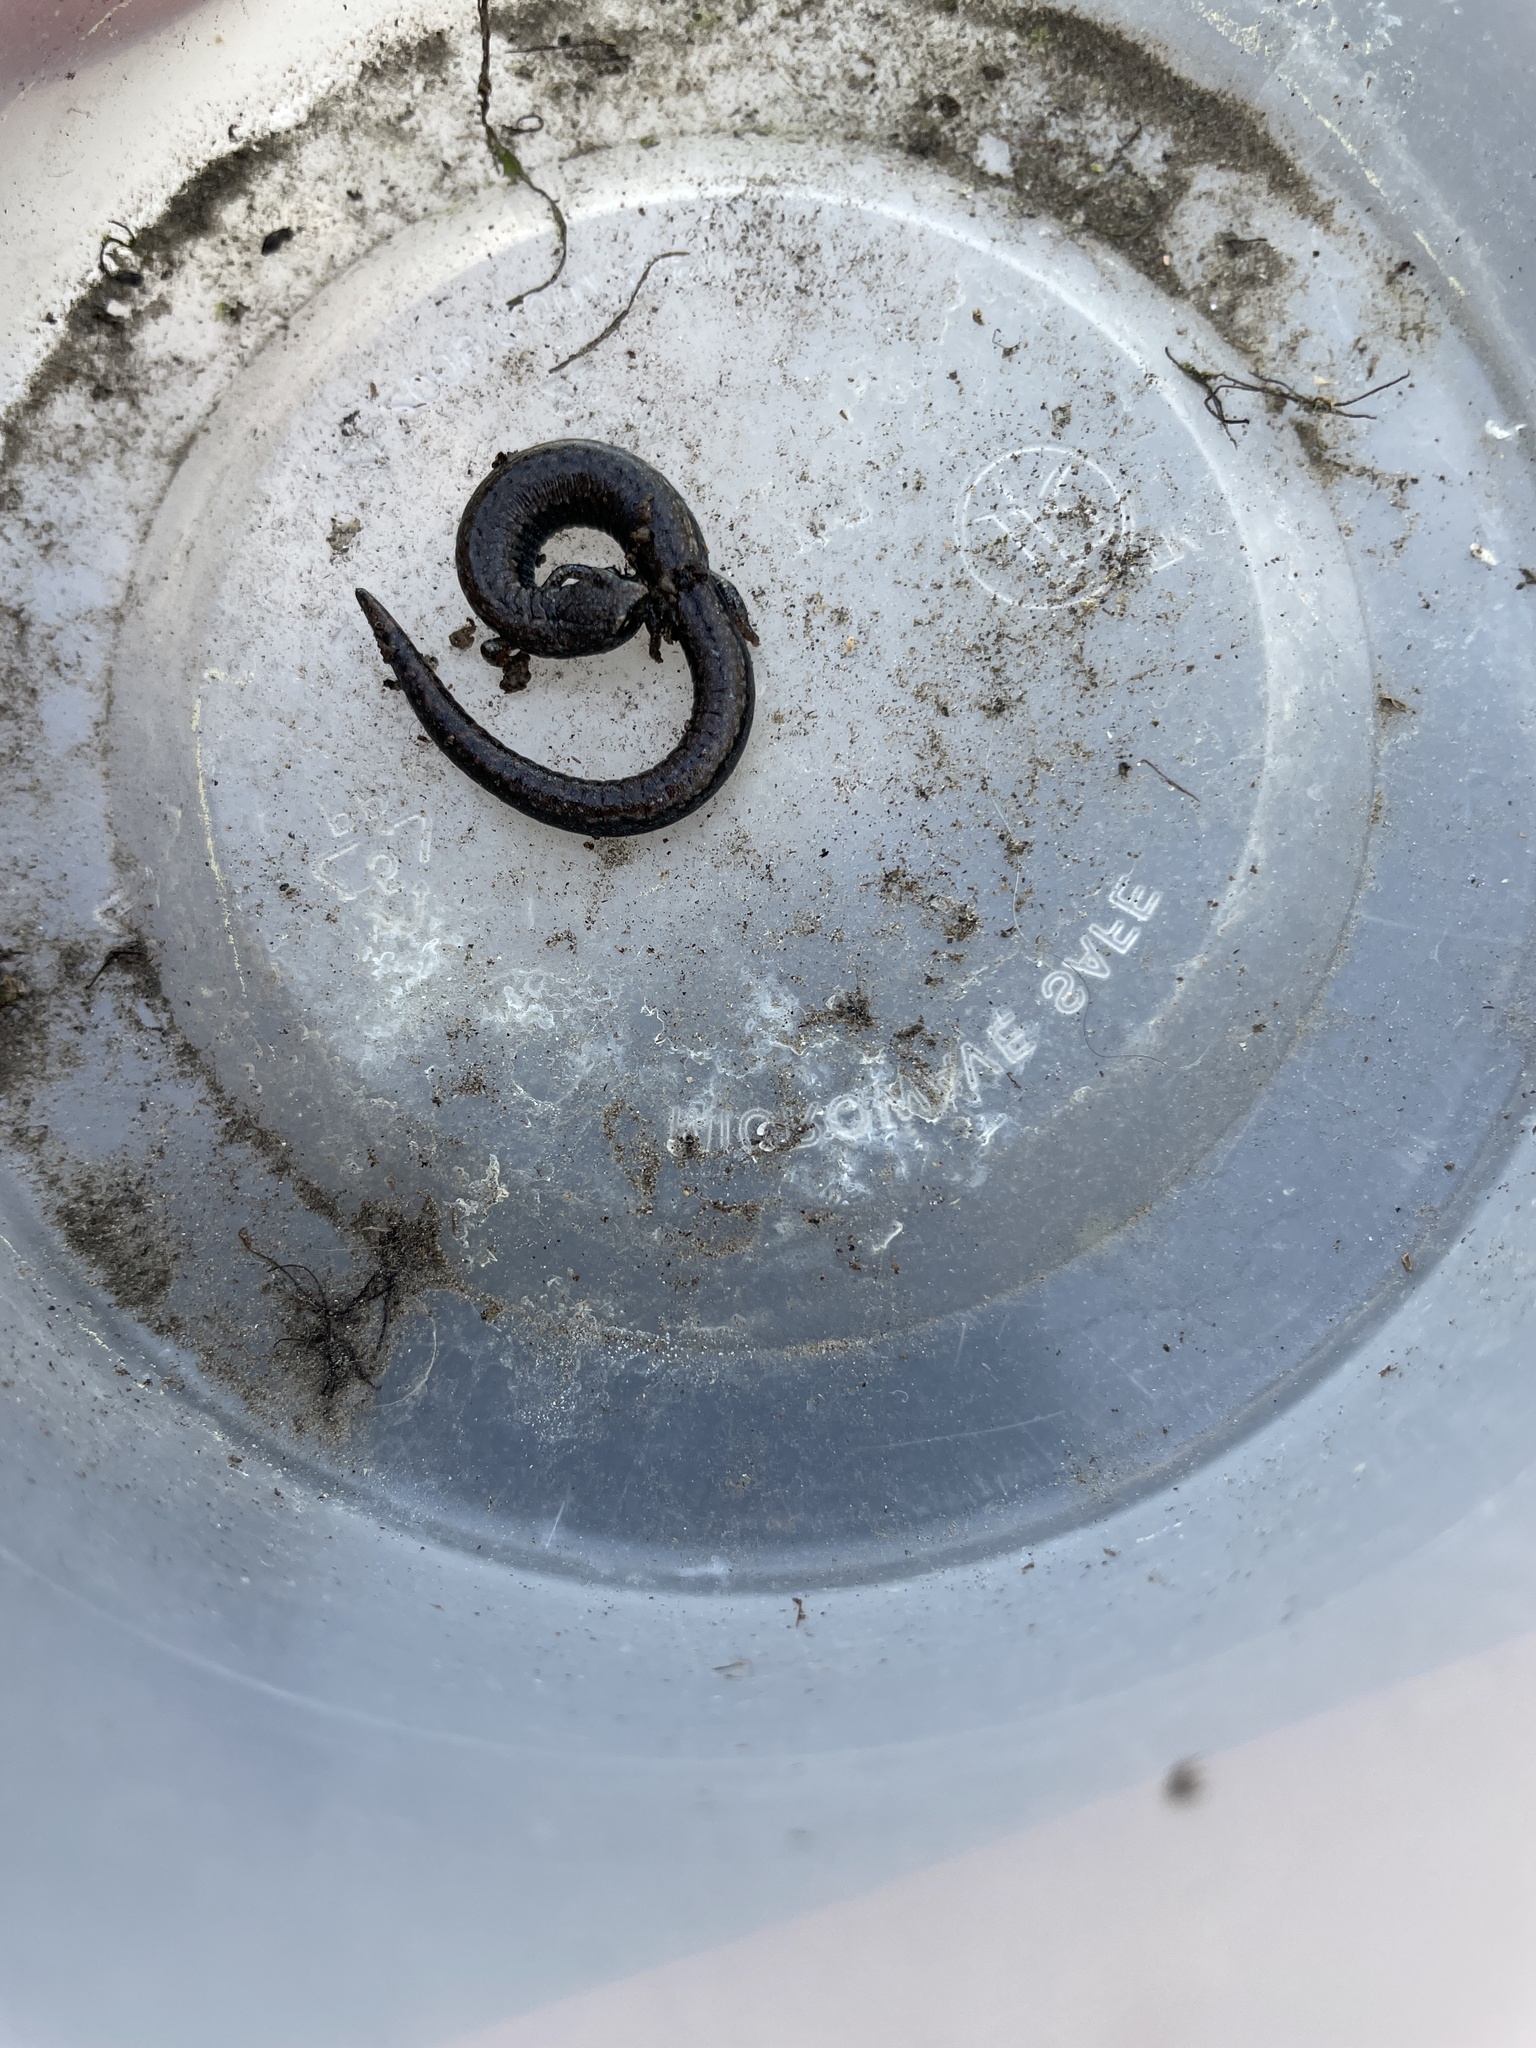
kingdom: Animalia
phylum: Chordata
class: Amphibia
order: Caudata
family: Plethodontidae
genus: Batrachoseps
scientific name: Batrachoseps nigriventris
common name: Black-bellied slender salamander
